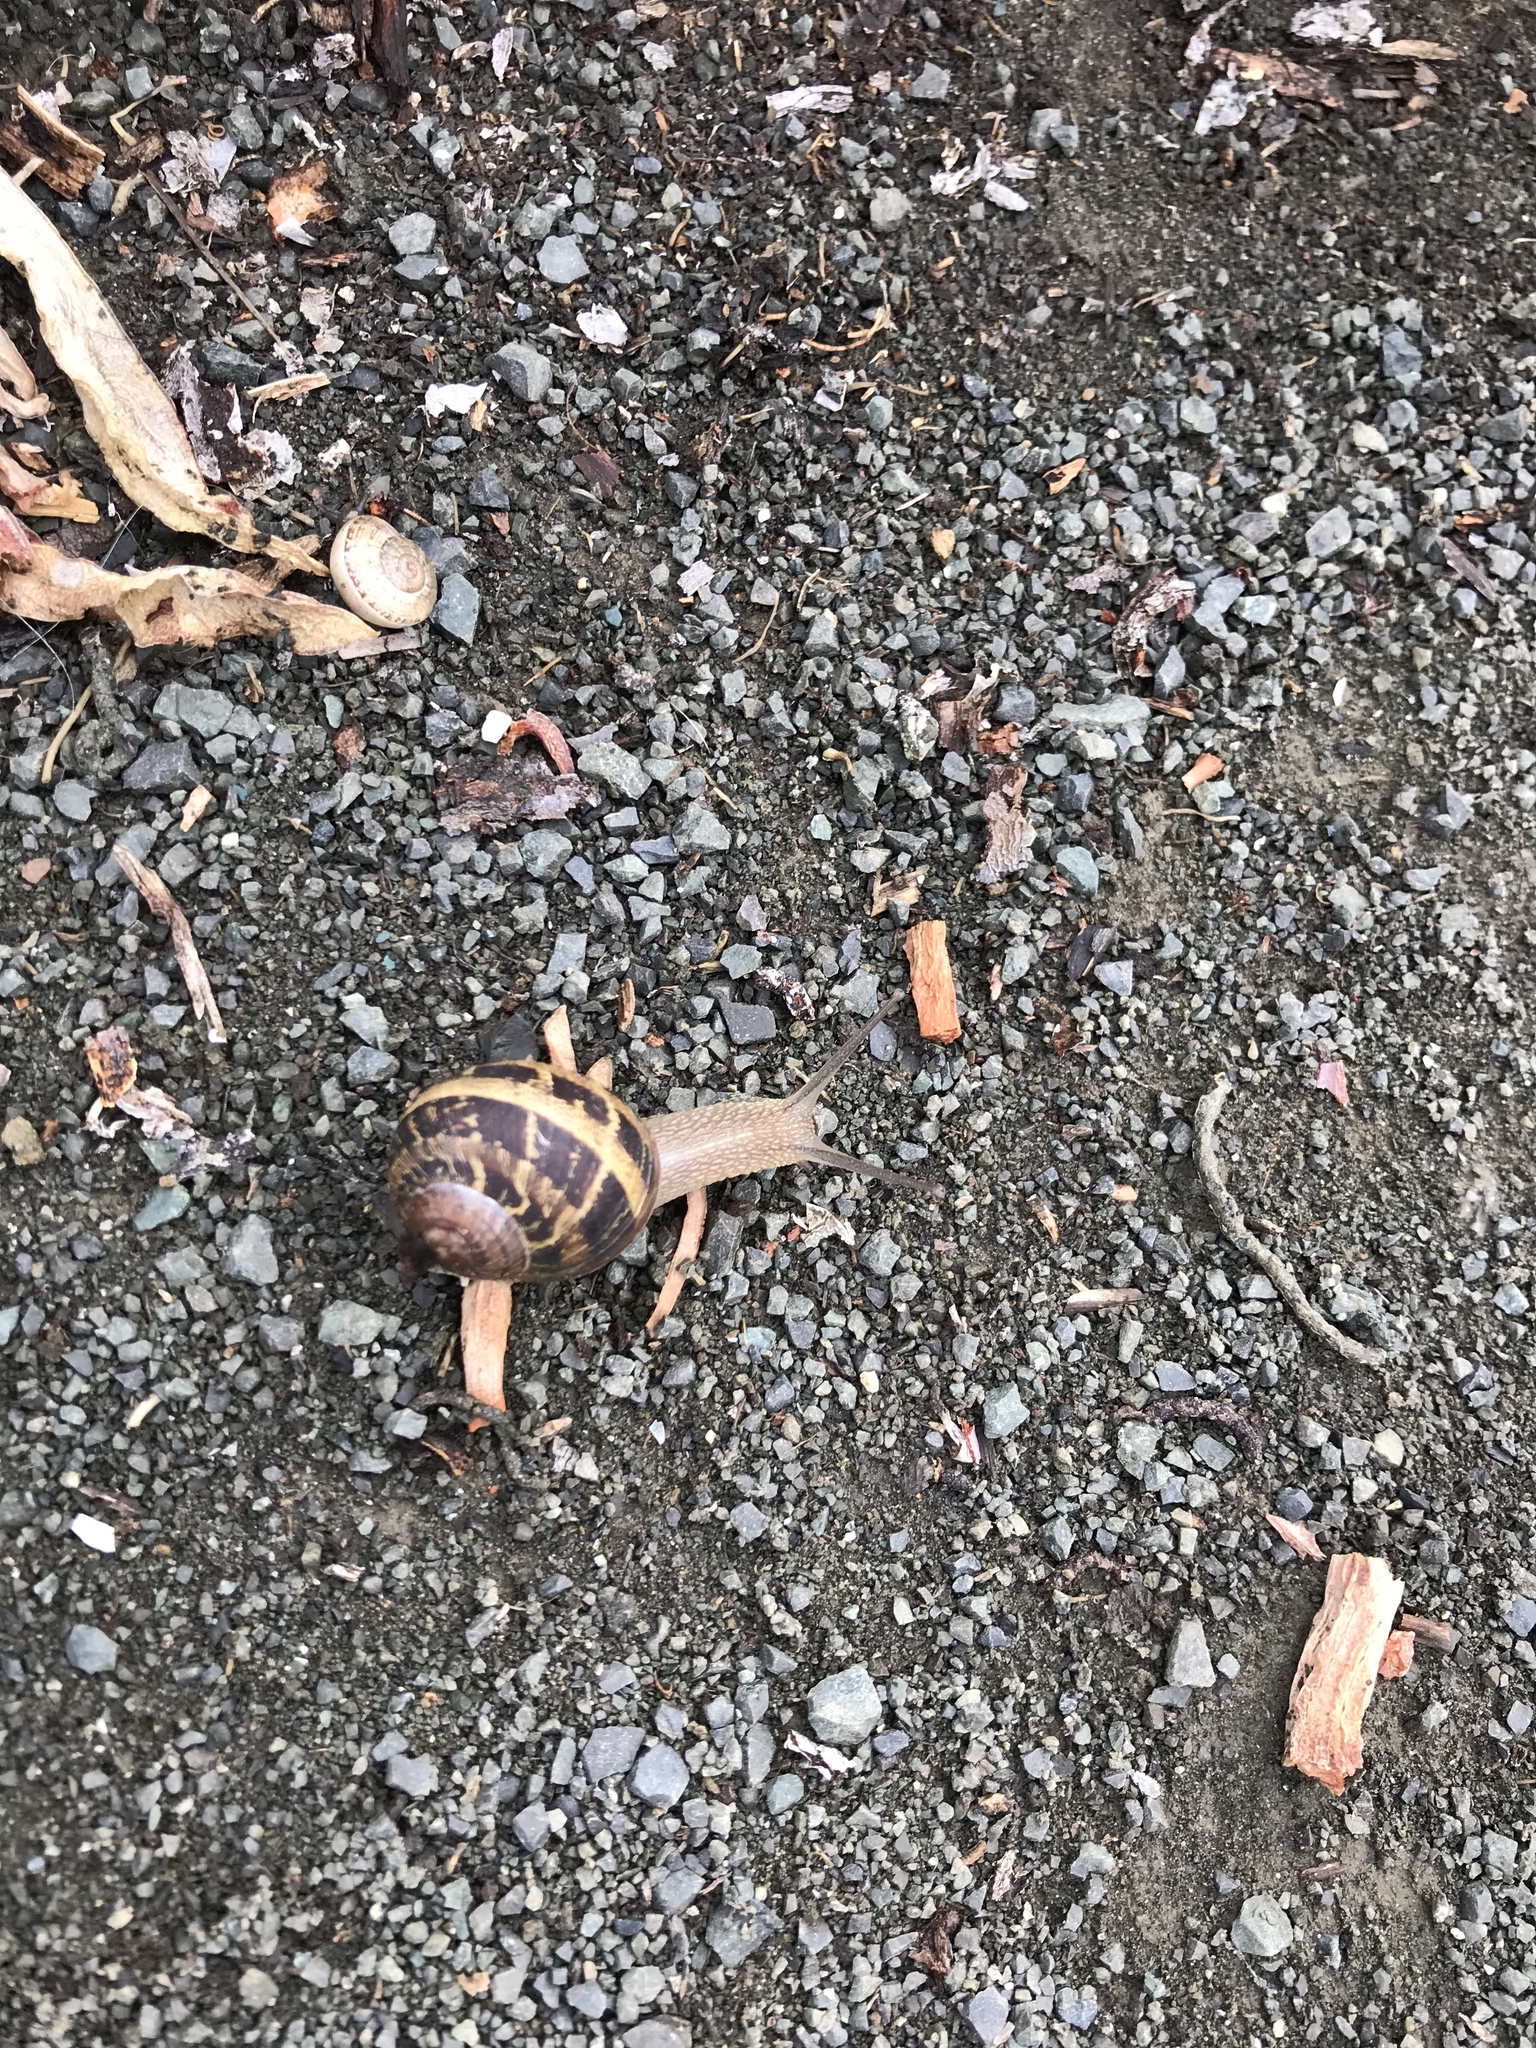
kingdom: Animalia
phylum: Mollusca
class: Gastropoda
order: Stylommatophora
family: Helicidae
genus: Cornu
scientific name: Cornu aspersum
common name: Brown garden snail
